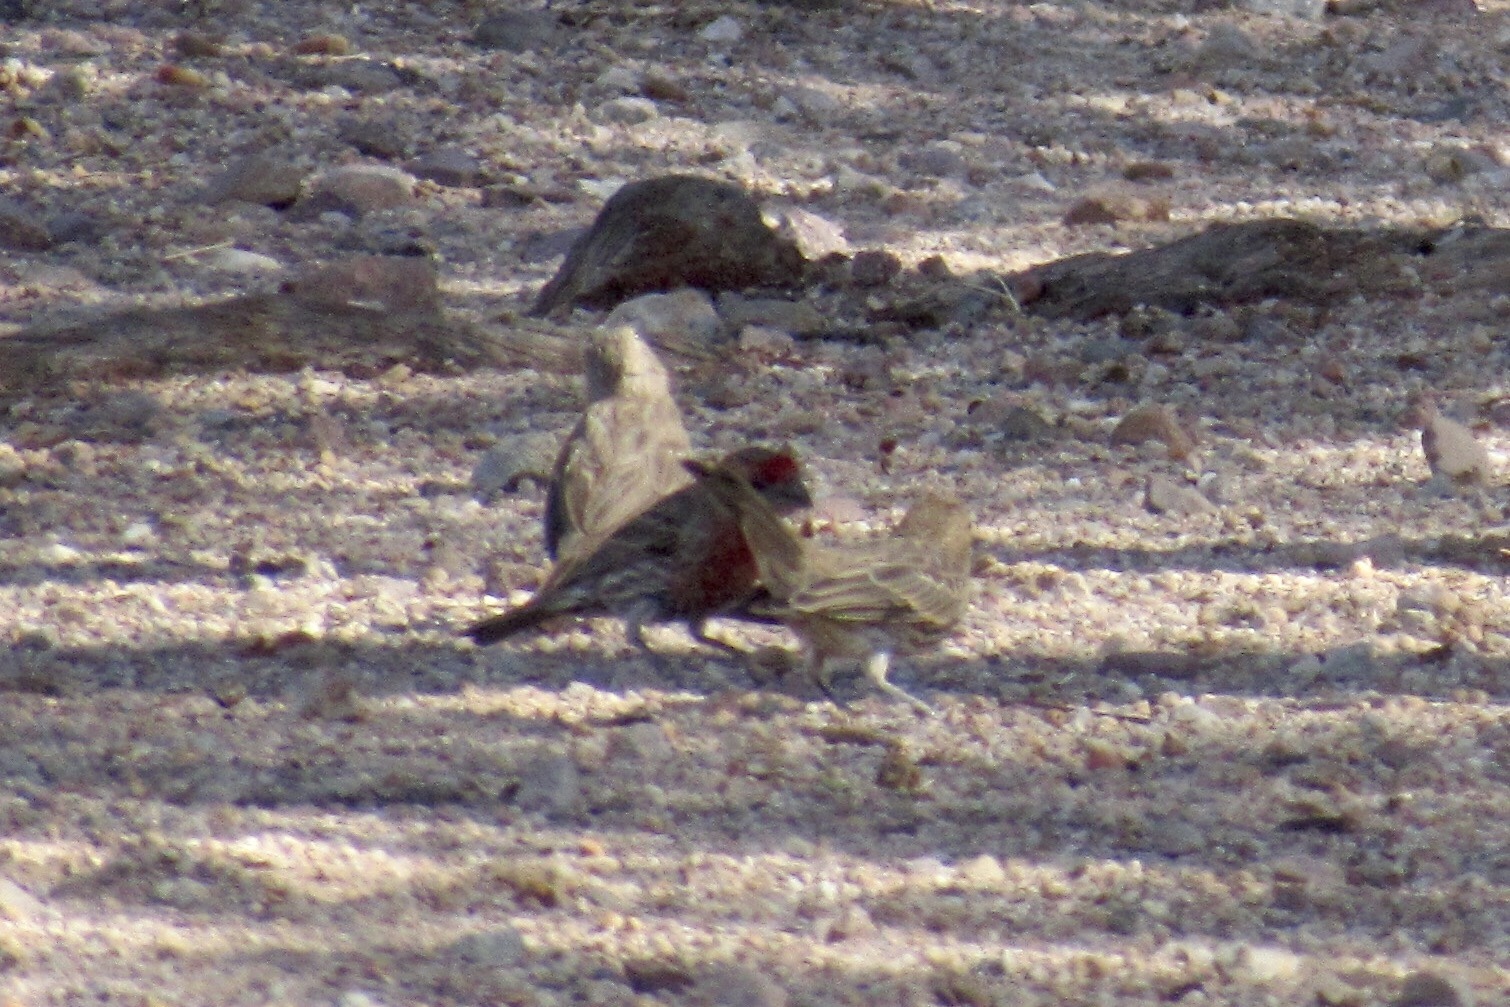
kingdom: Animalia
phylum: Chordata
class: Aves
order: Passeriformes
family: Fringillidae
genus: Haemorhous
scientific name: Haemorhous mexicanus
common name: House finch
